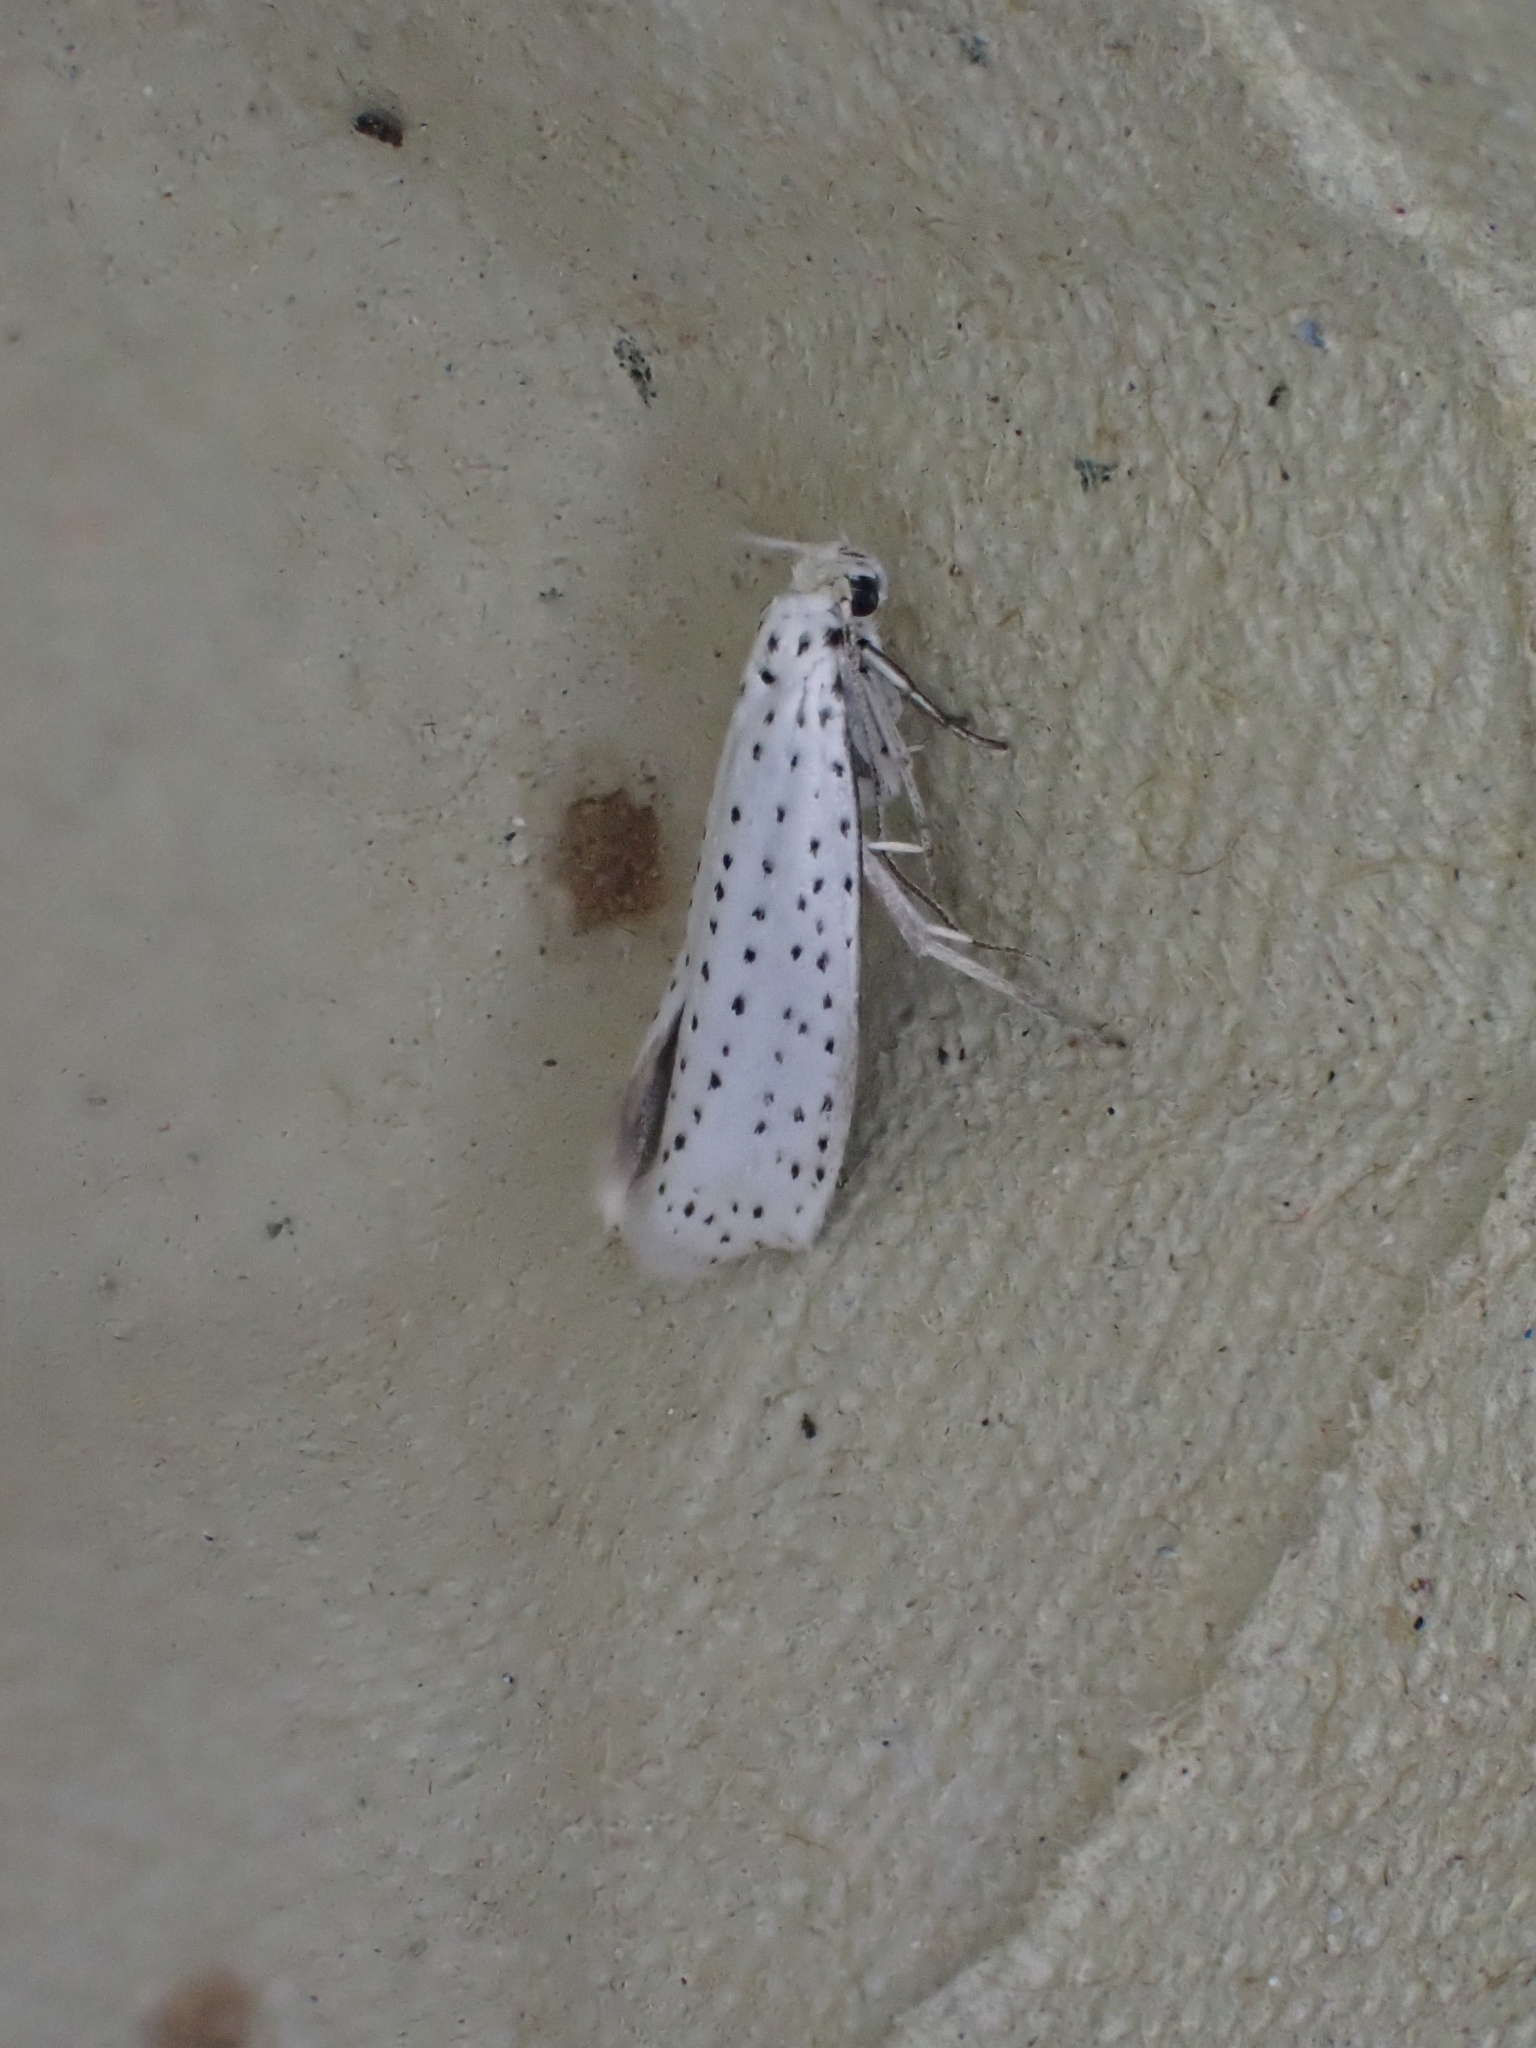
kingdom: Animalia
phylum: Arthropoda
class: Insecta
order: Lepidoptera
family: Yponomeutidae
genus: Yponomeuta
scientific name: Yponomeuta evonymella
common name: Bird-cherry ermine
